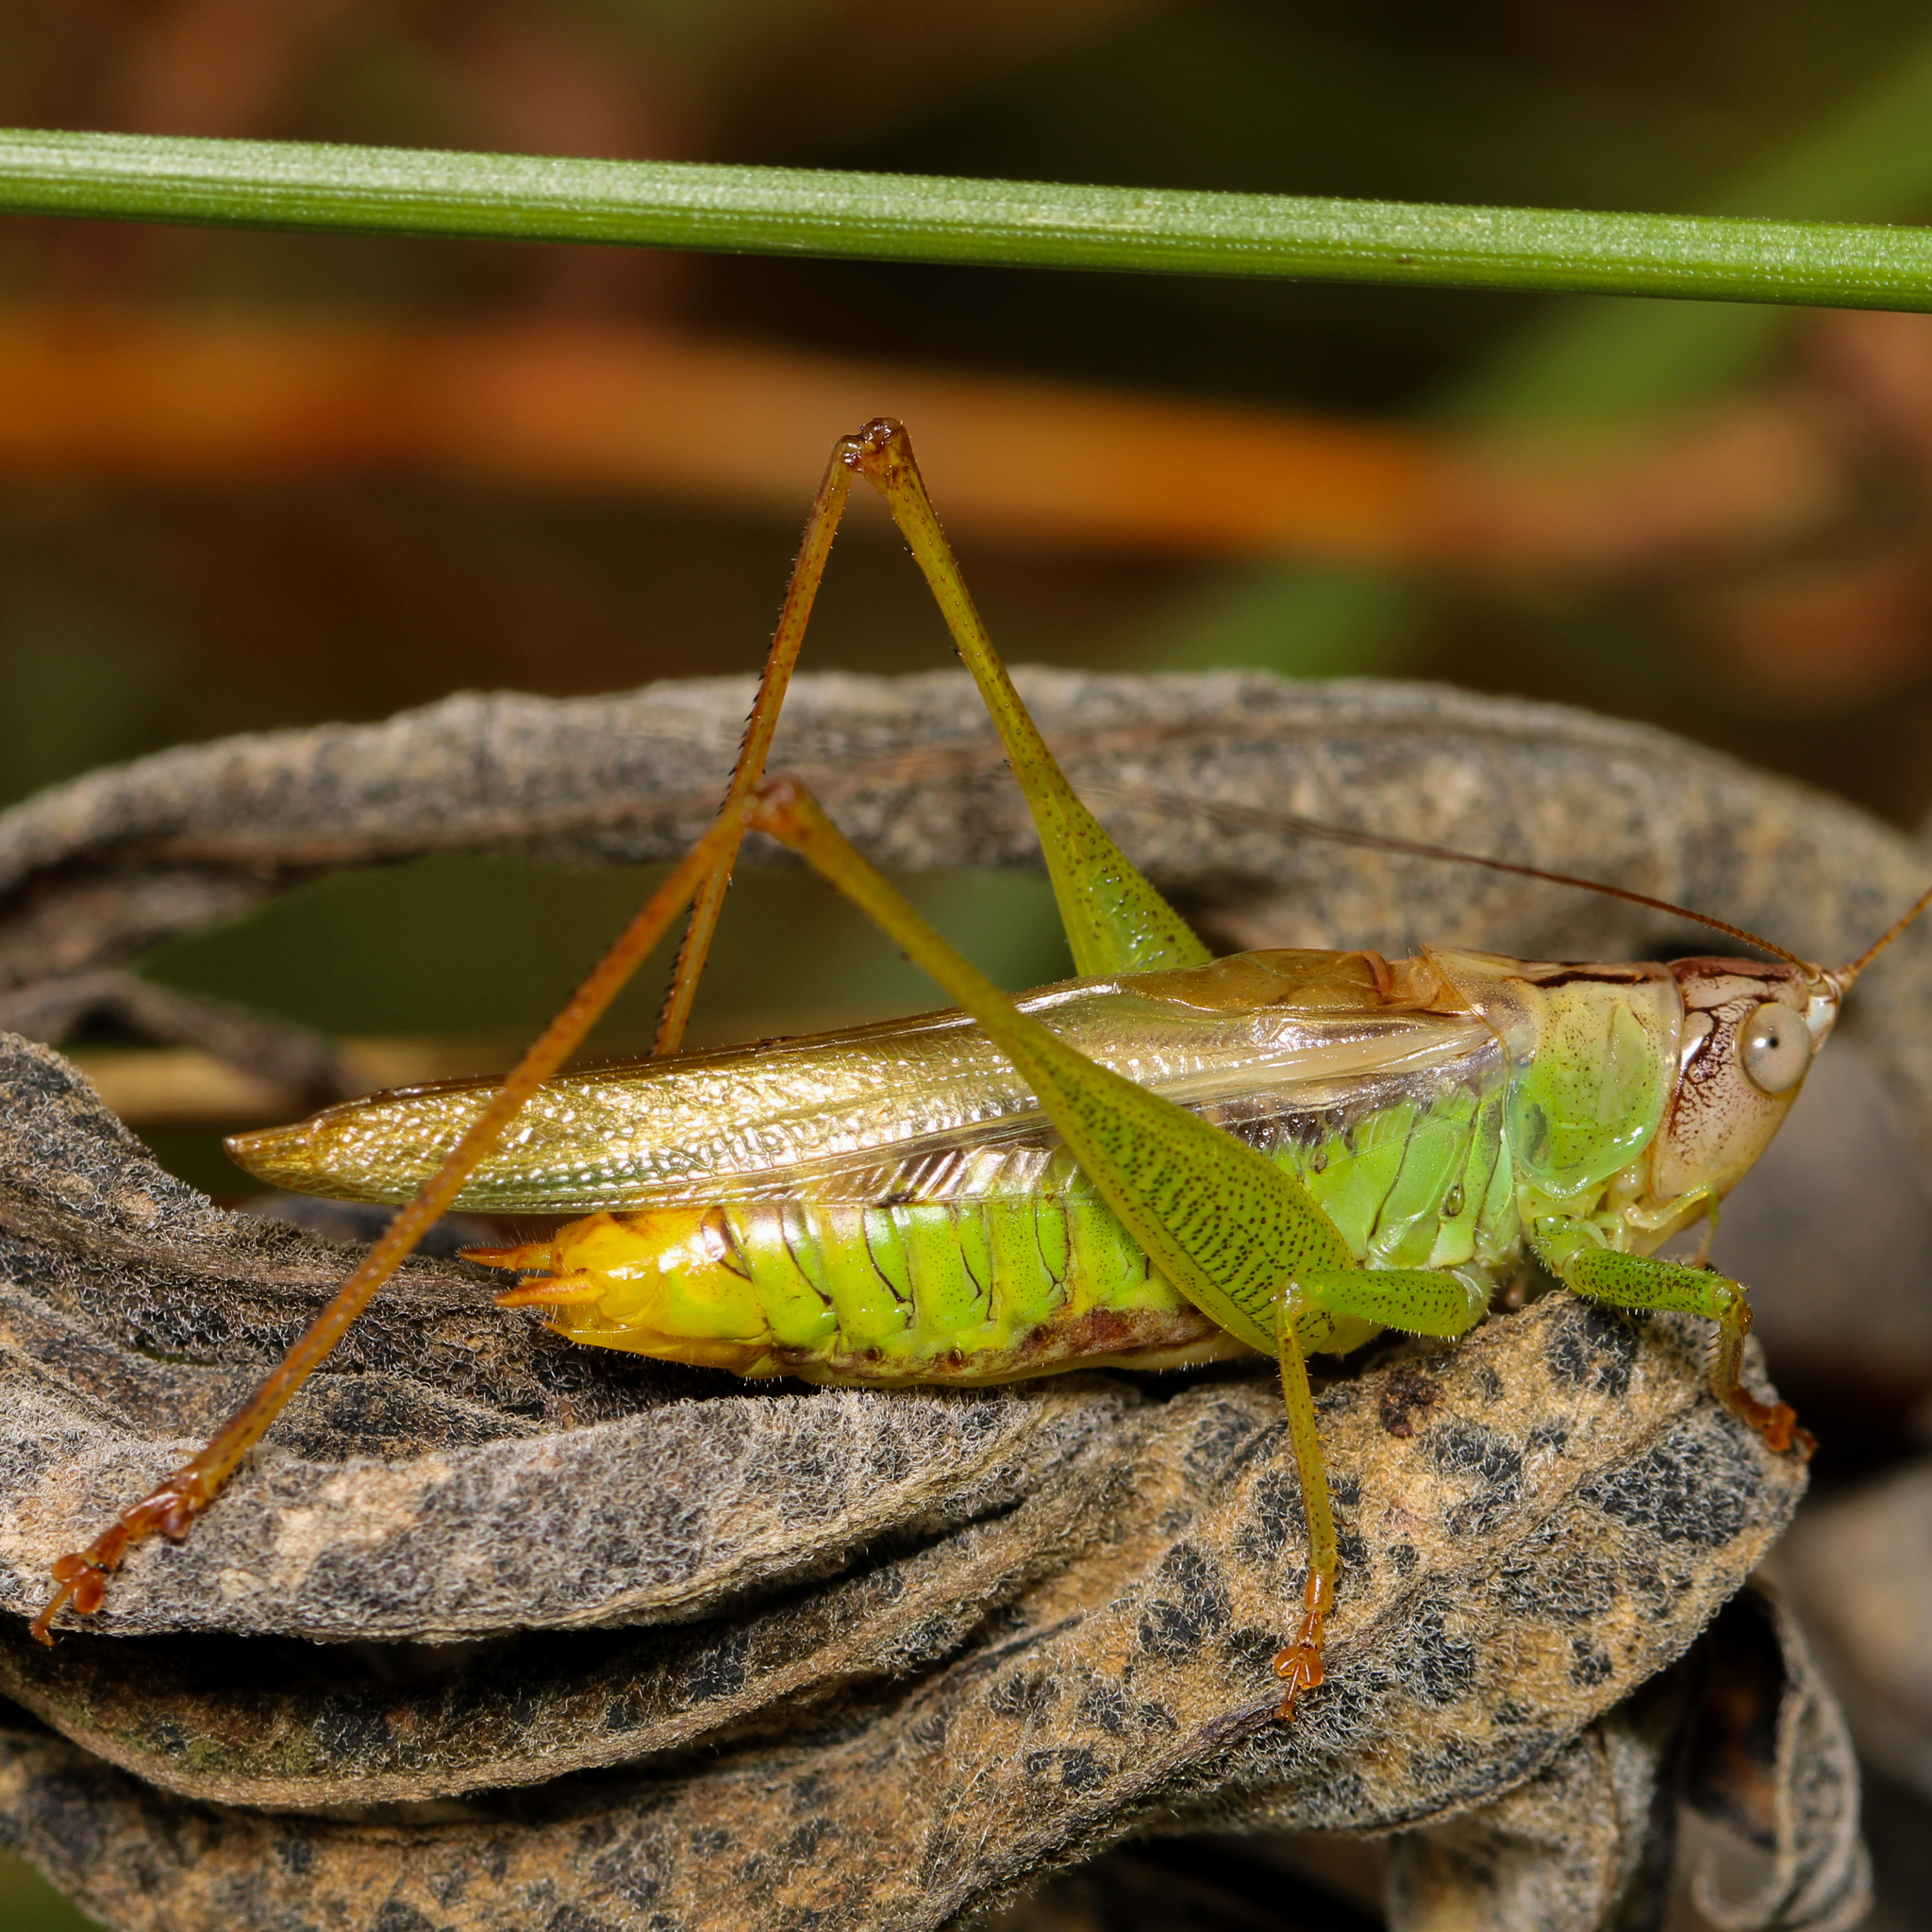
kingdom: Animalia
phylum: Arthropoda
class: Insecta
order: Orthoptera
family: Tettigoniidae
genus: Orchelimum
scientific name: Orchelimum agilis
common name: Agile meadow grasshopper
